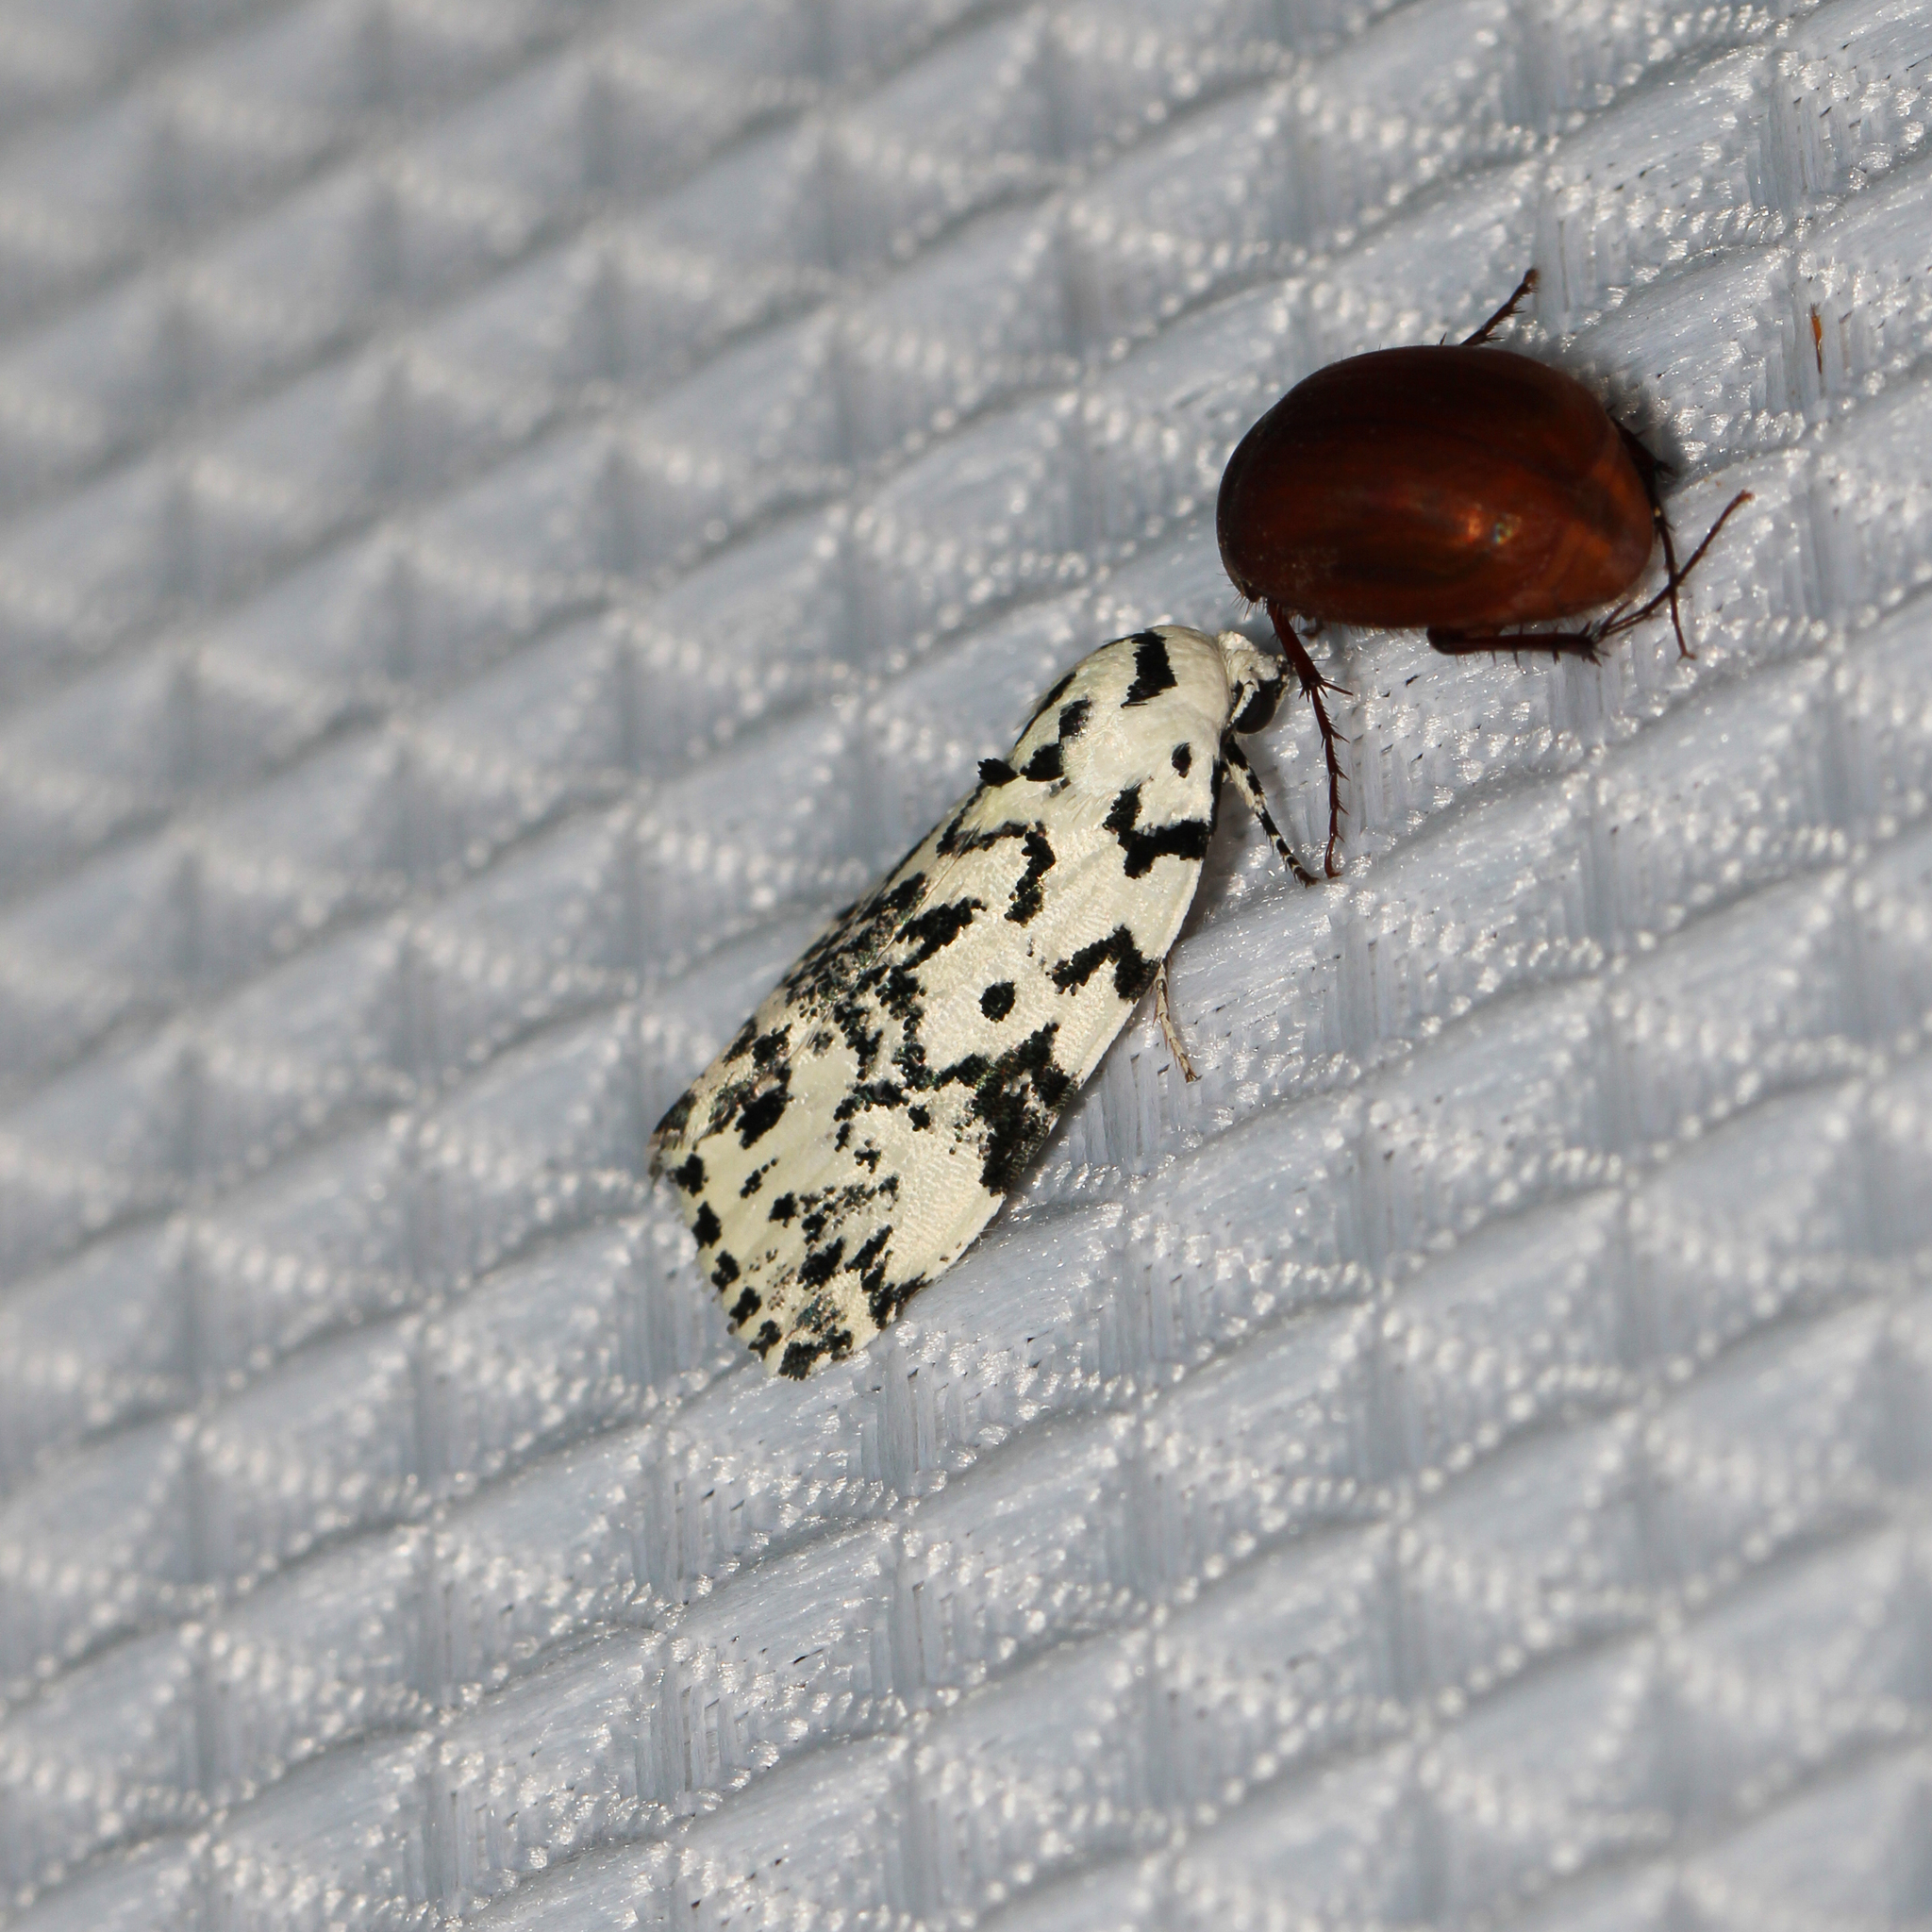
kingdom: Animalia
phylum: Arthropoda
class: Insecta
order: Lepidoptera
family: Noctuidae
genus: Polygrammate
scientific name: Polygrammate hebraeicum
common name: Hebrew moth
